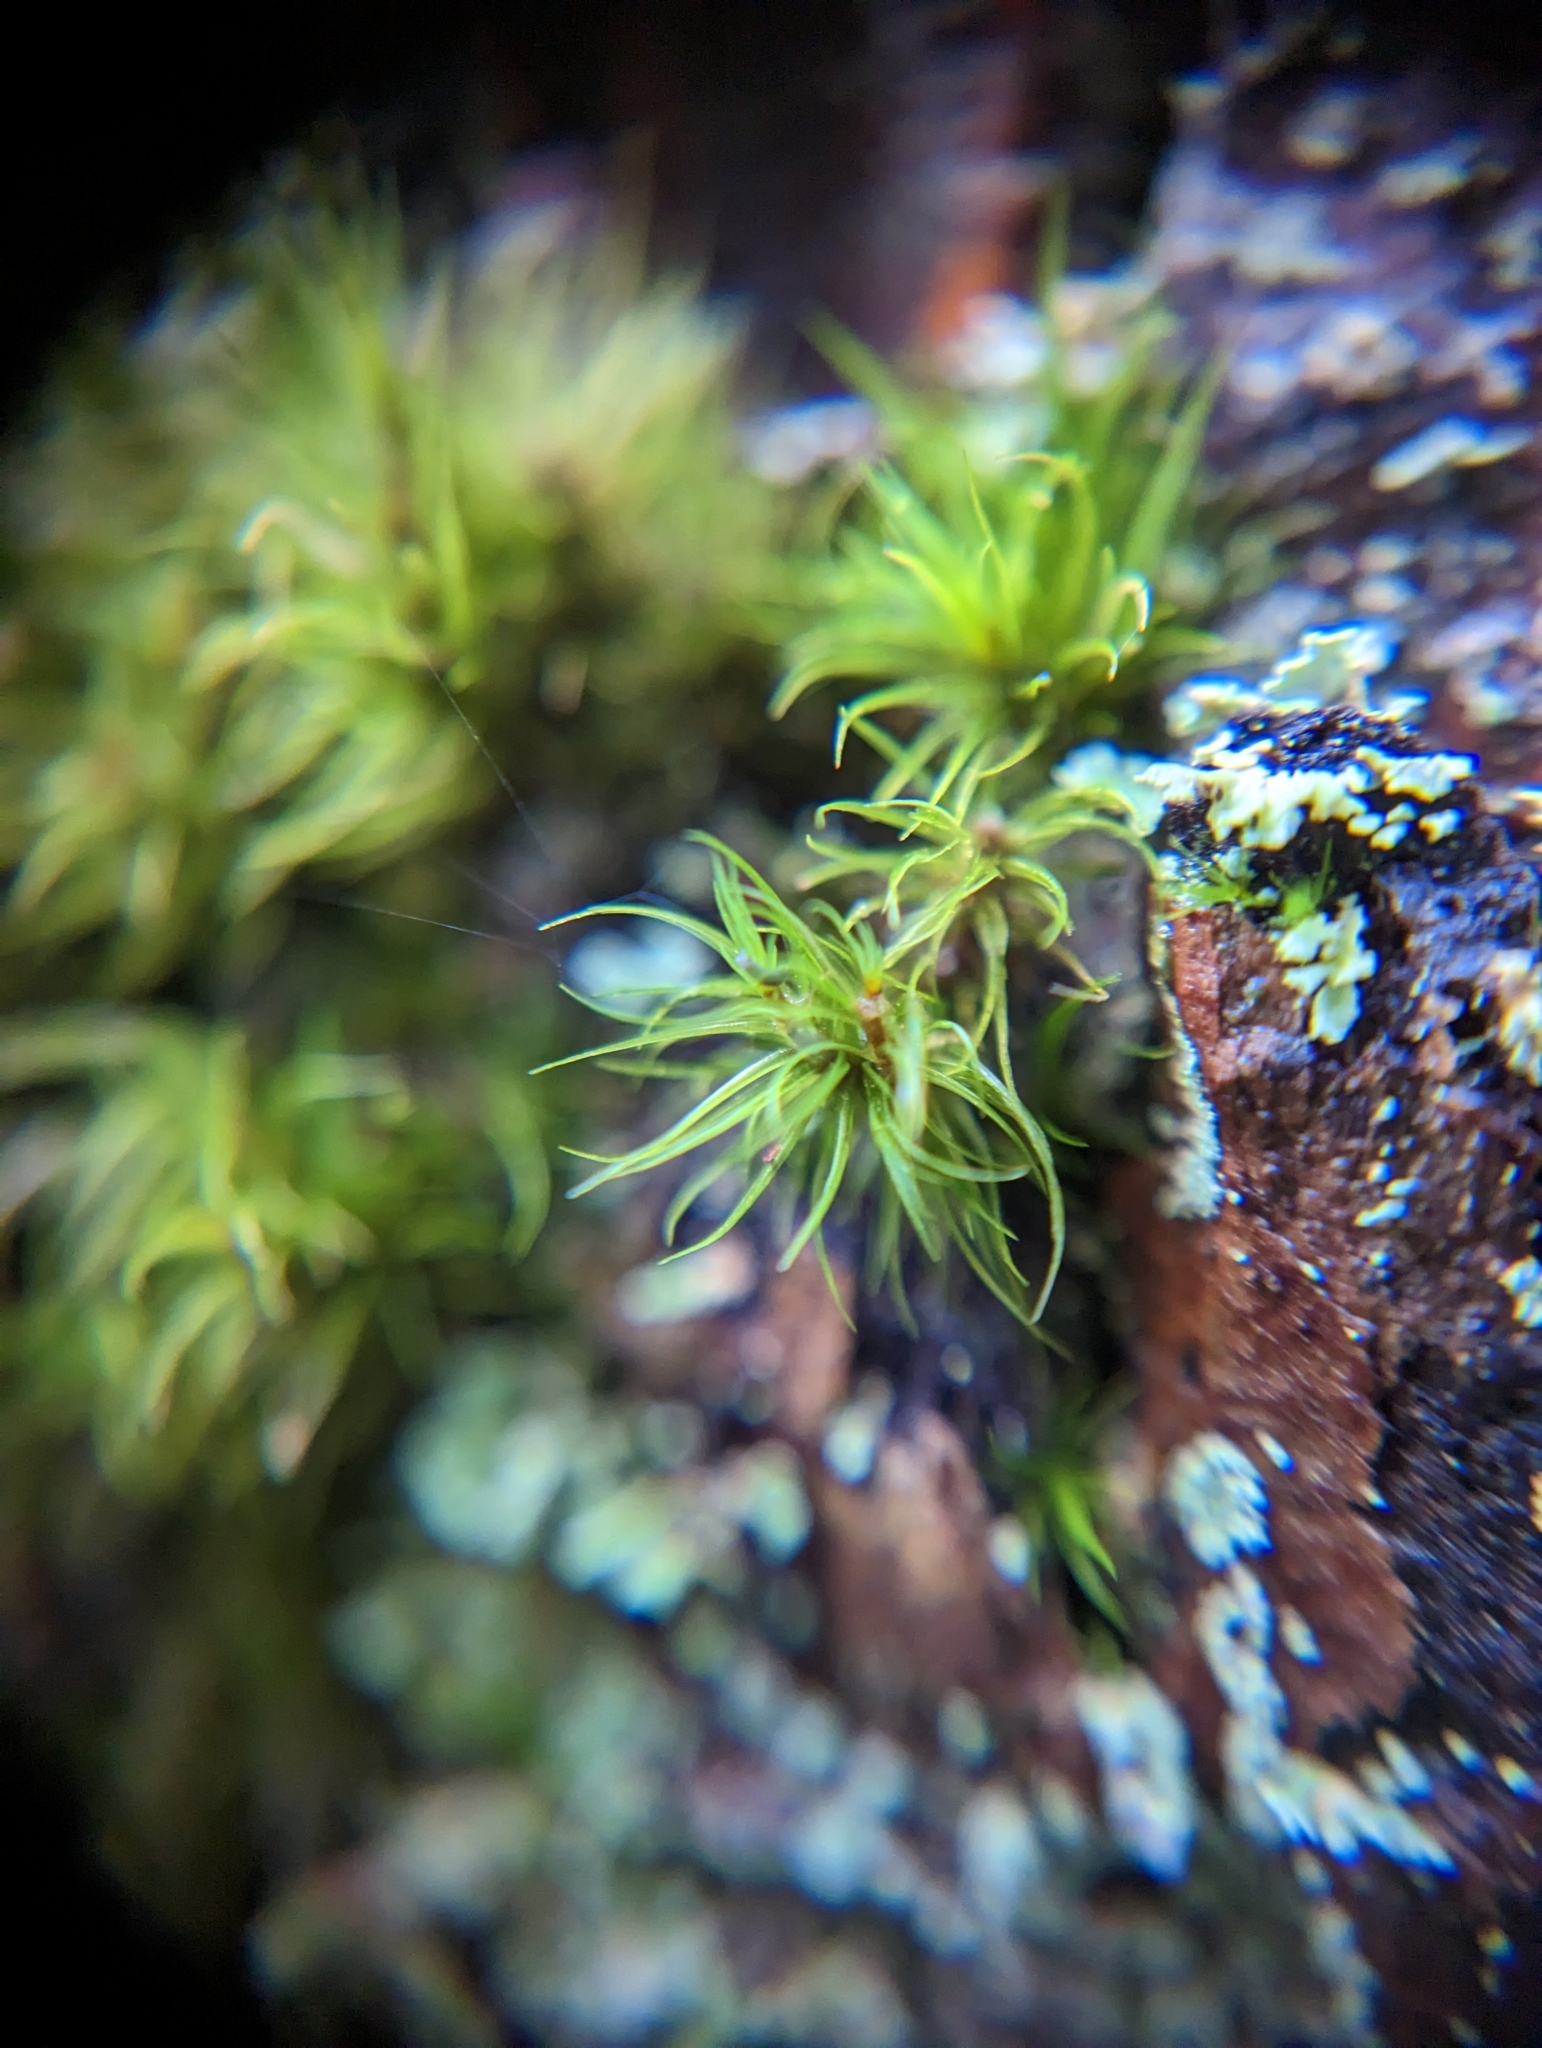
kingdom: Plantae
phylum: Bryophyta
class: Bryopsida
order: Dicranales
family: Dicranaceae
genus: Dicranum
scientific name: Dicranum fuscescens
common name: Curly heron's-bill moss
